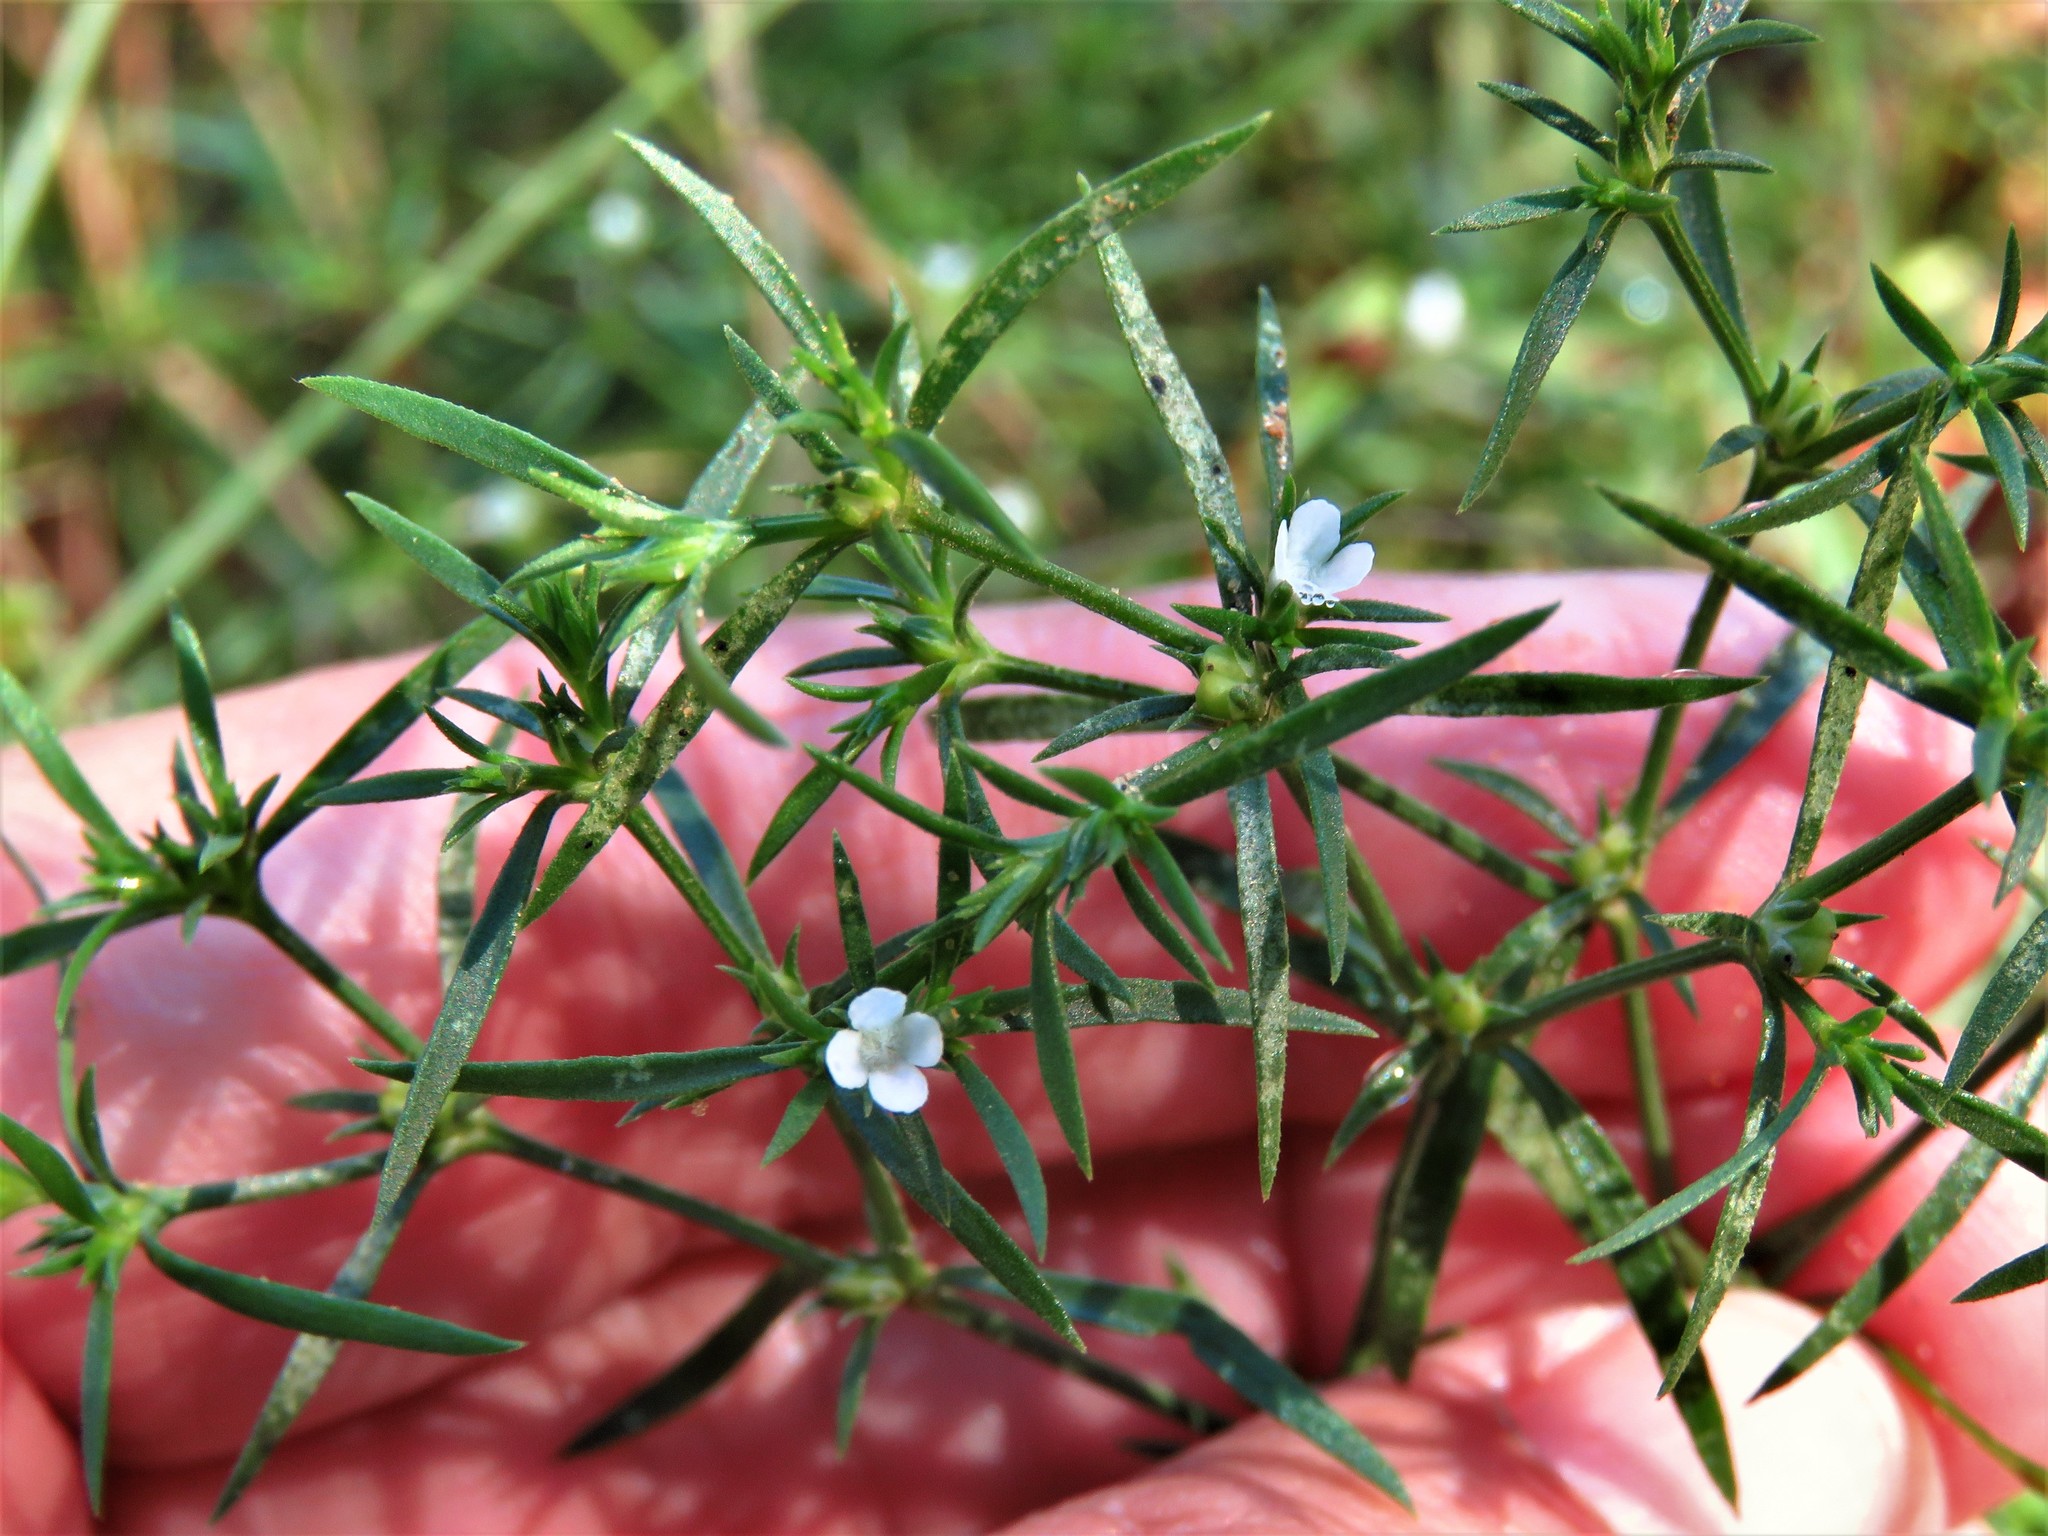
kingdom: Plantae
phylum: Tracheophyta
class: Magnoliopsida
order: Lamiales
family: Tetrachondraceae
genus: Polypremum
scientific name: Polypremum procumbens
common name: Juniper-leaf
